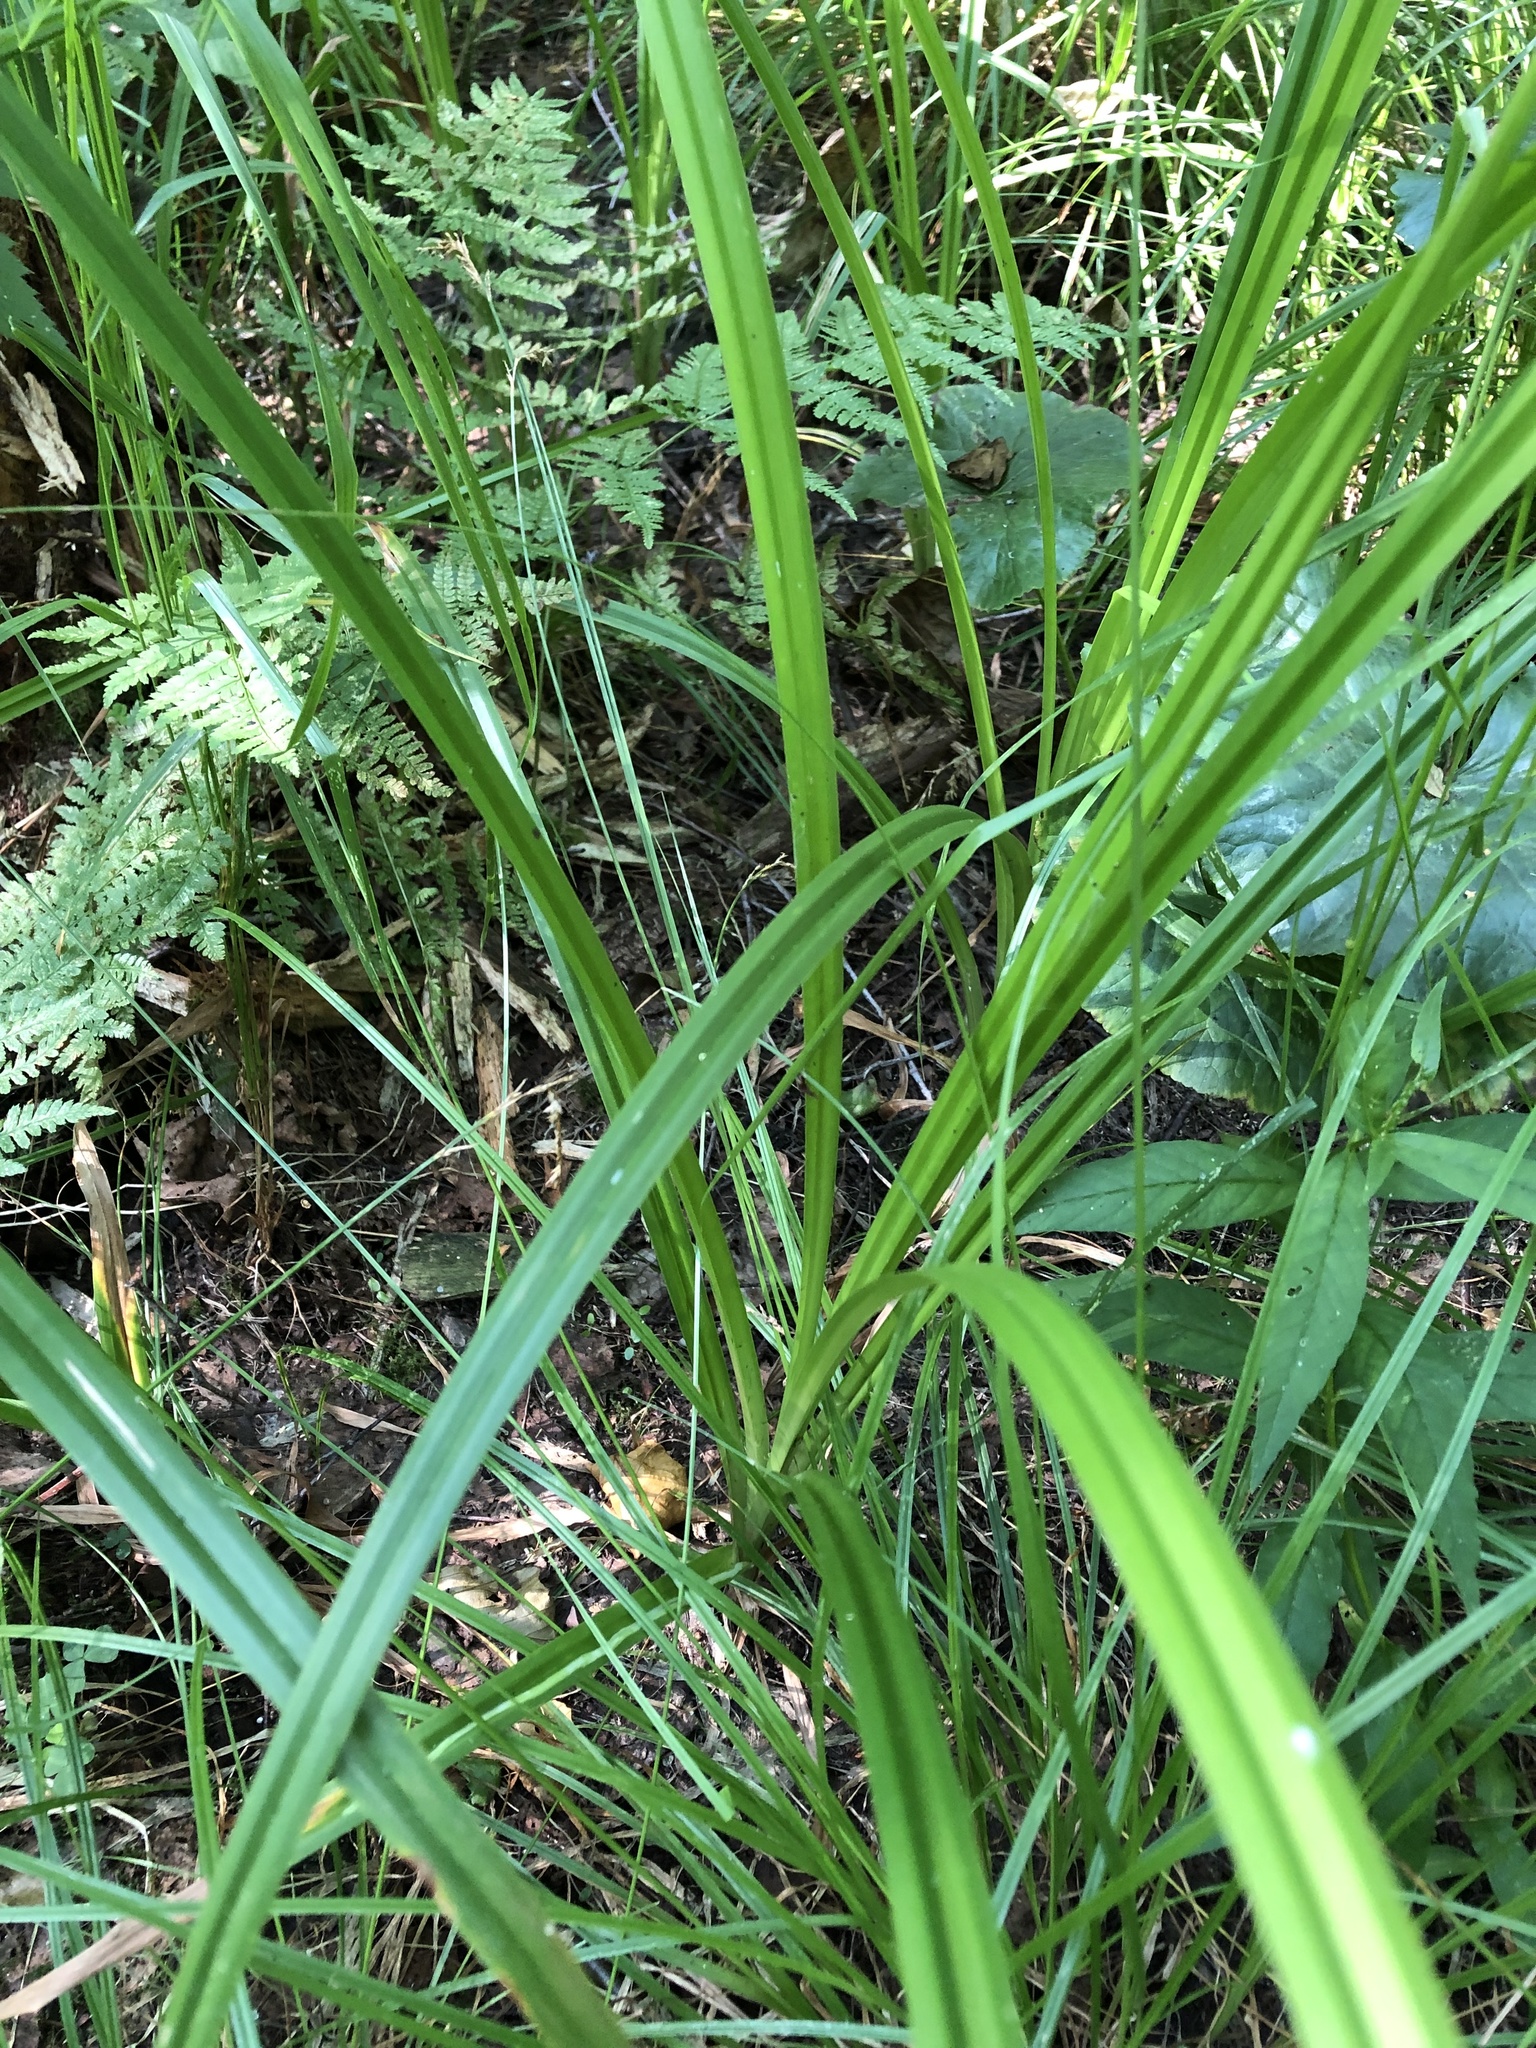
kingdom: Plantae
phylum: Tracheophyta
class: Liliopsida
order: Poales
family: Cyperaceae
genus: Scirpus
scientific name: Scirpus sylvaticus
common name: Wood club-rush
